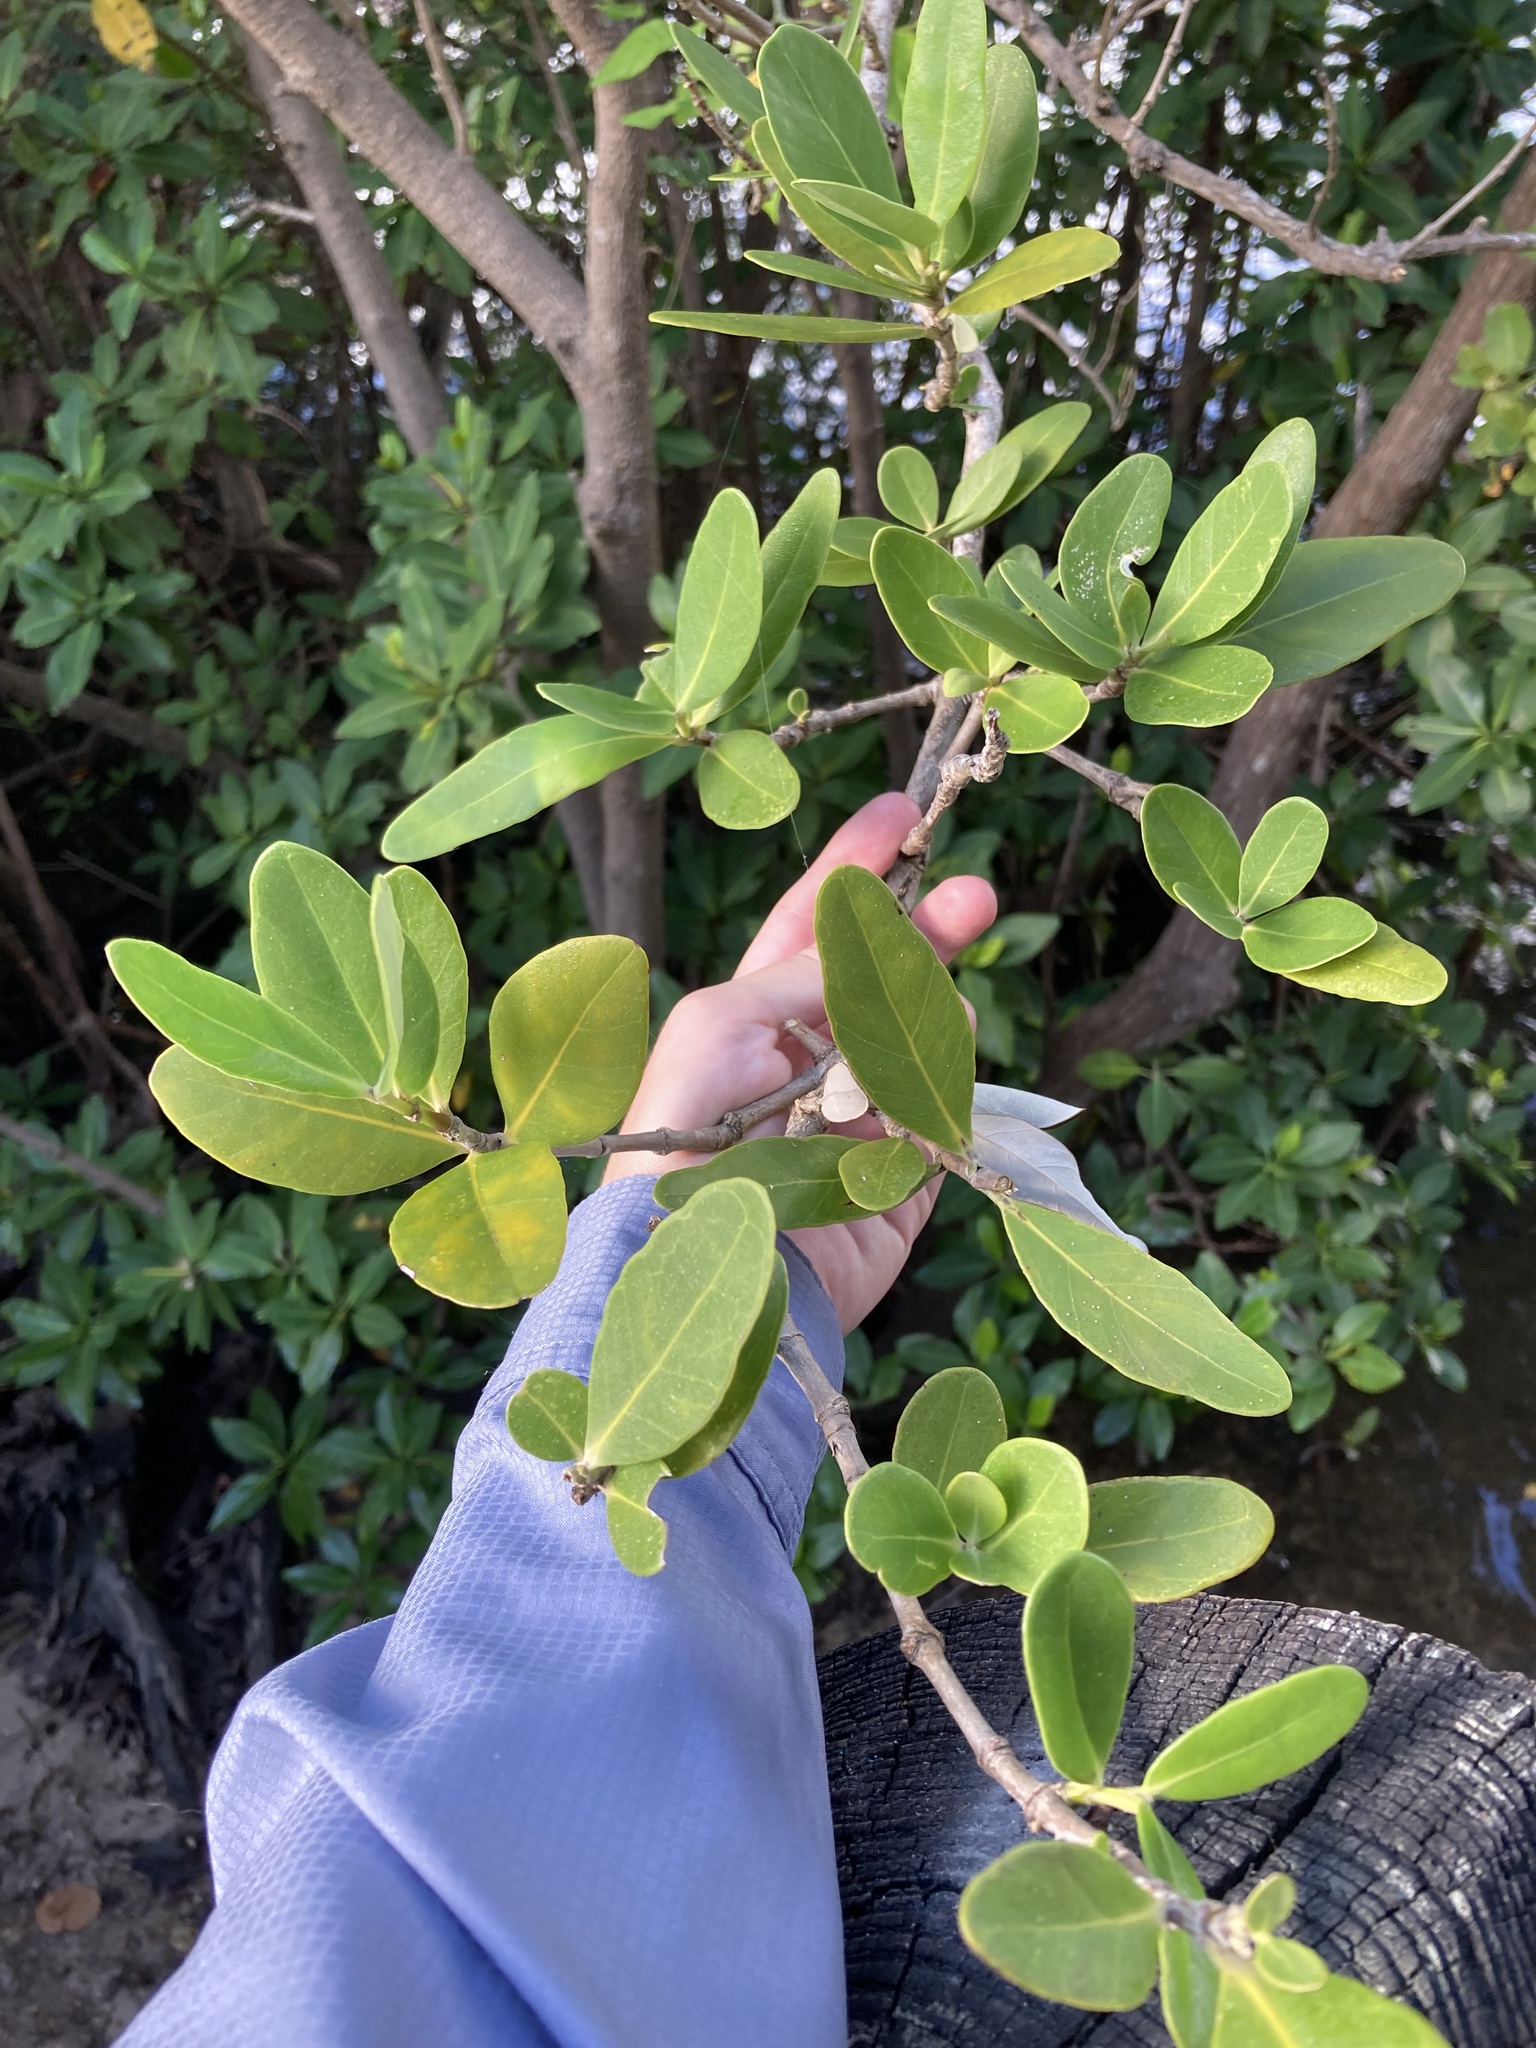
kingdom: Plantae
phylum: Tracheophyta
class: Magnoliopsida
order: Lamiales
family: Acanthaceae
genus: Avicennia
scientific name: Avicennia germinans
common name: Black mangrove
